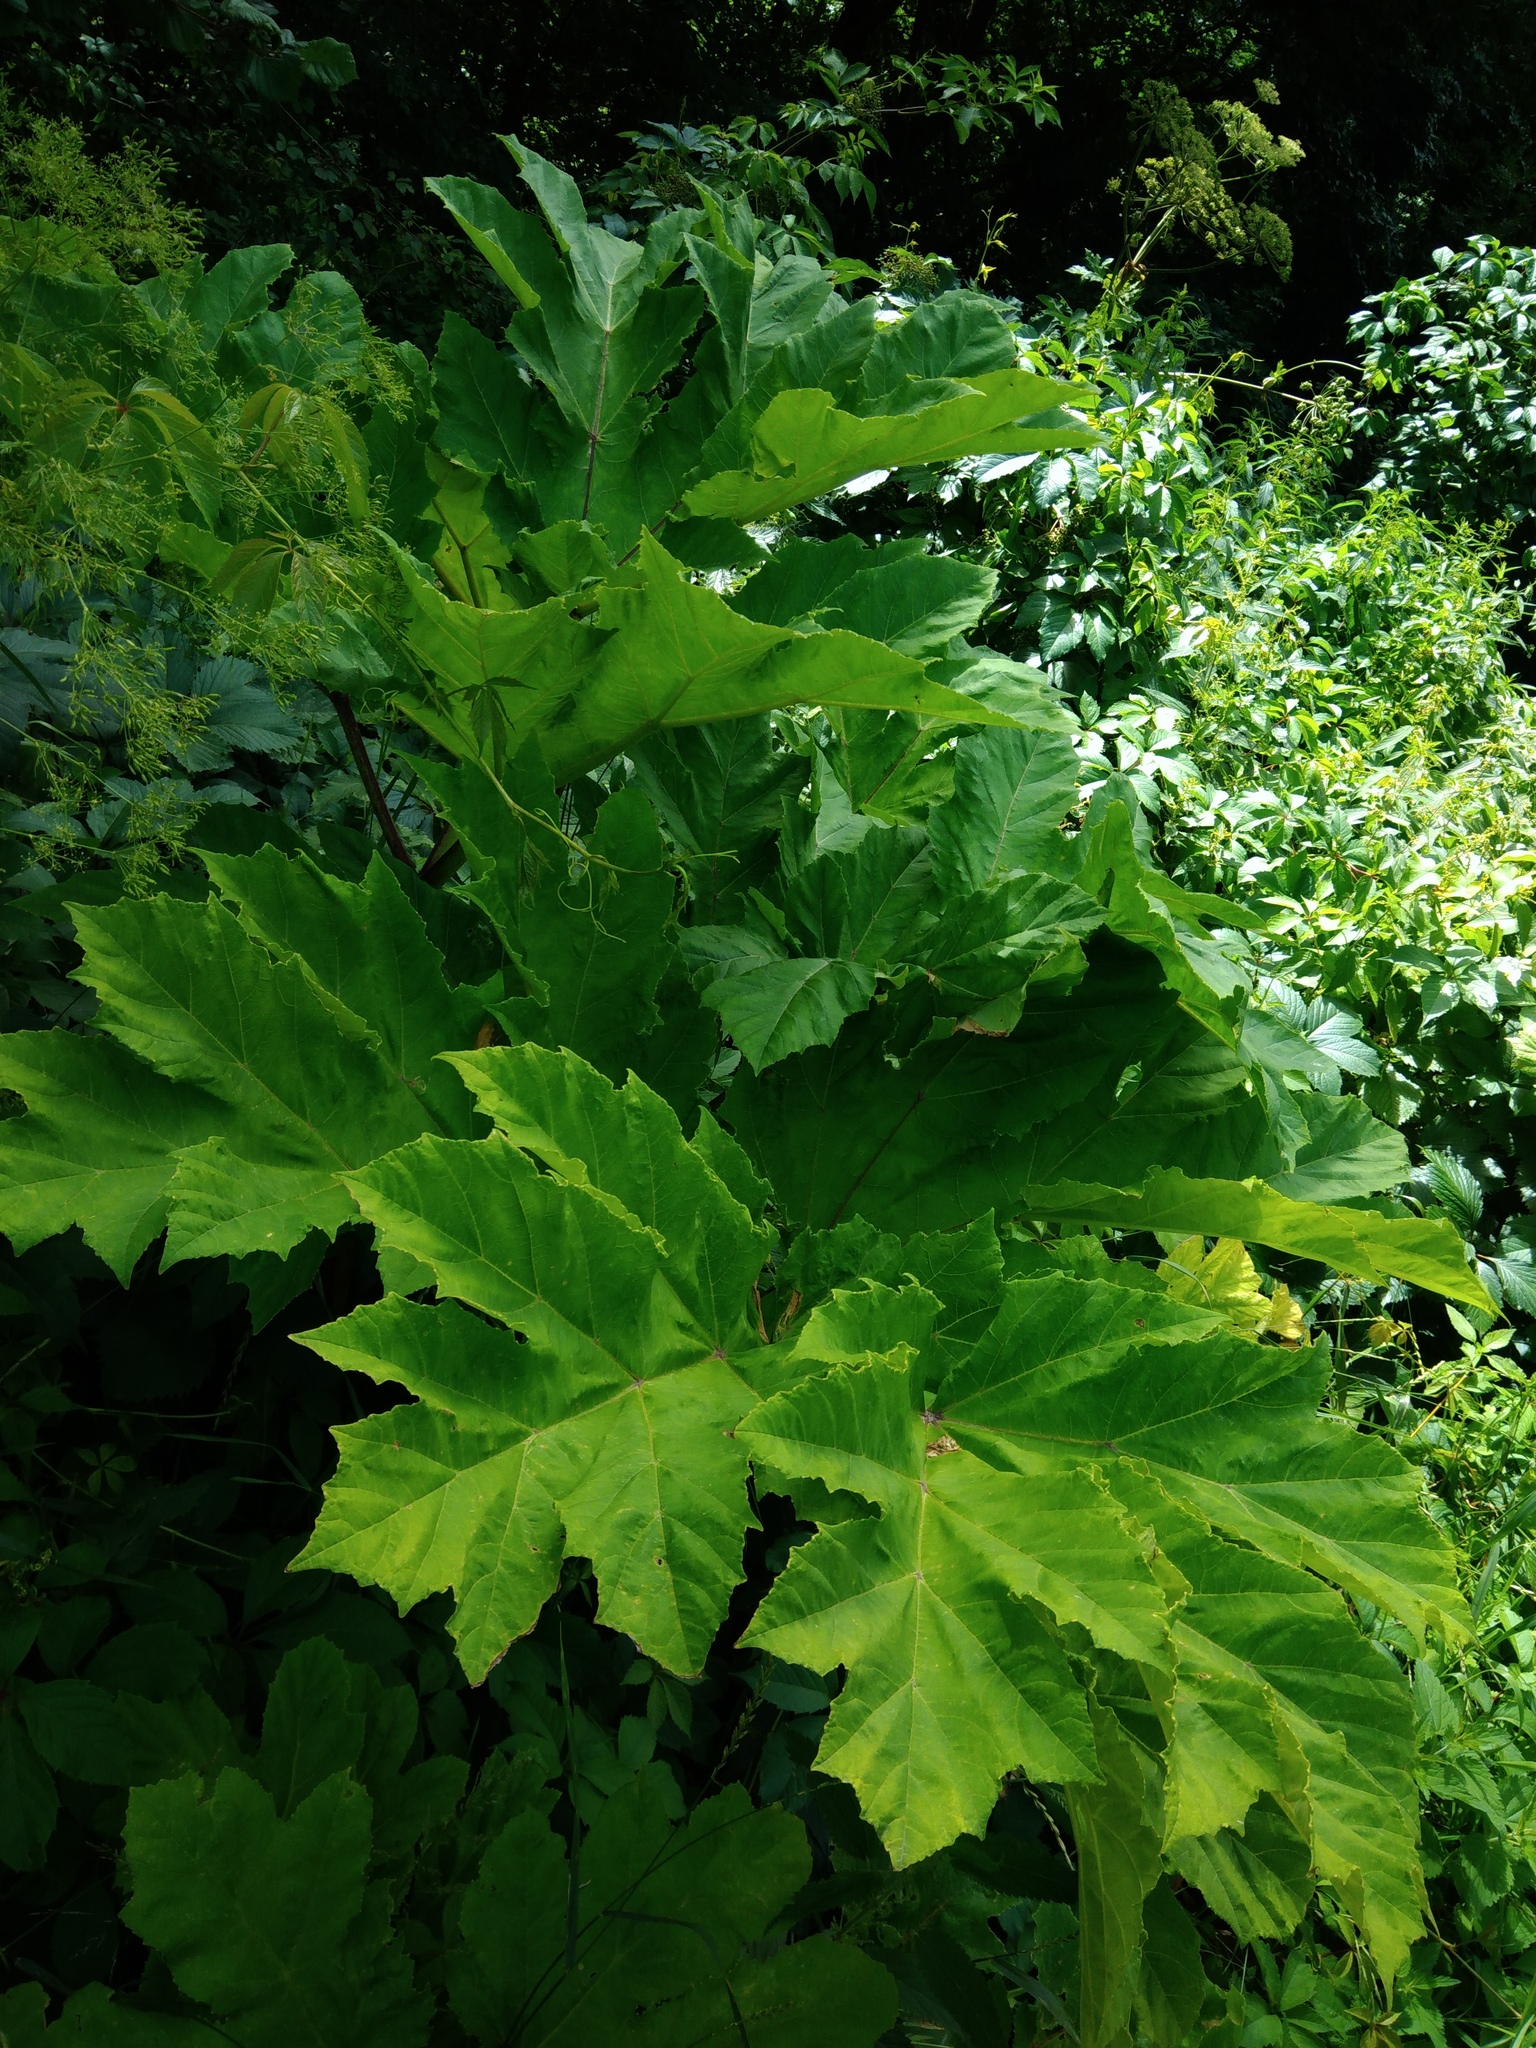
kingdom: Plantae
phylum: Tracheophyta
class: Magnoliopsida
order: Apiales
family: Apiaceae
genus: Heracleum
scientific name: Heracleum sosnowskyi
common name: Sosnowsky's hogweed
